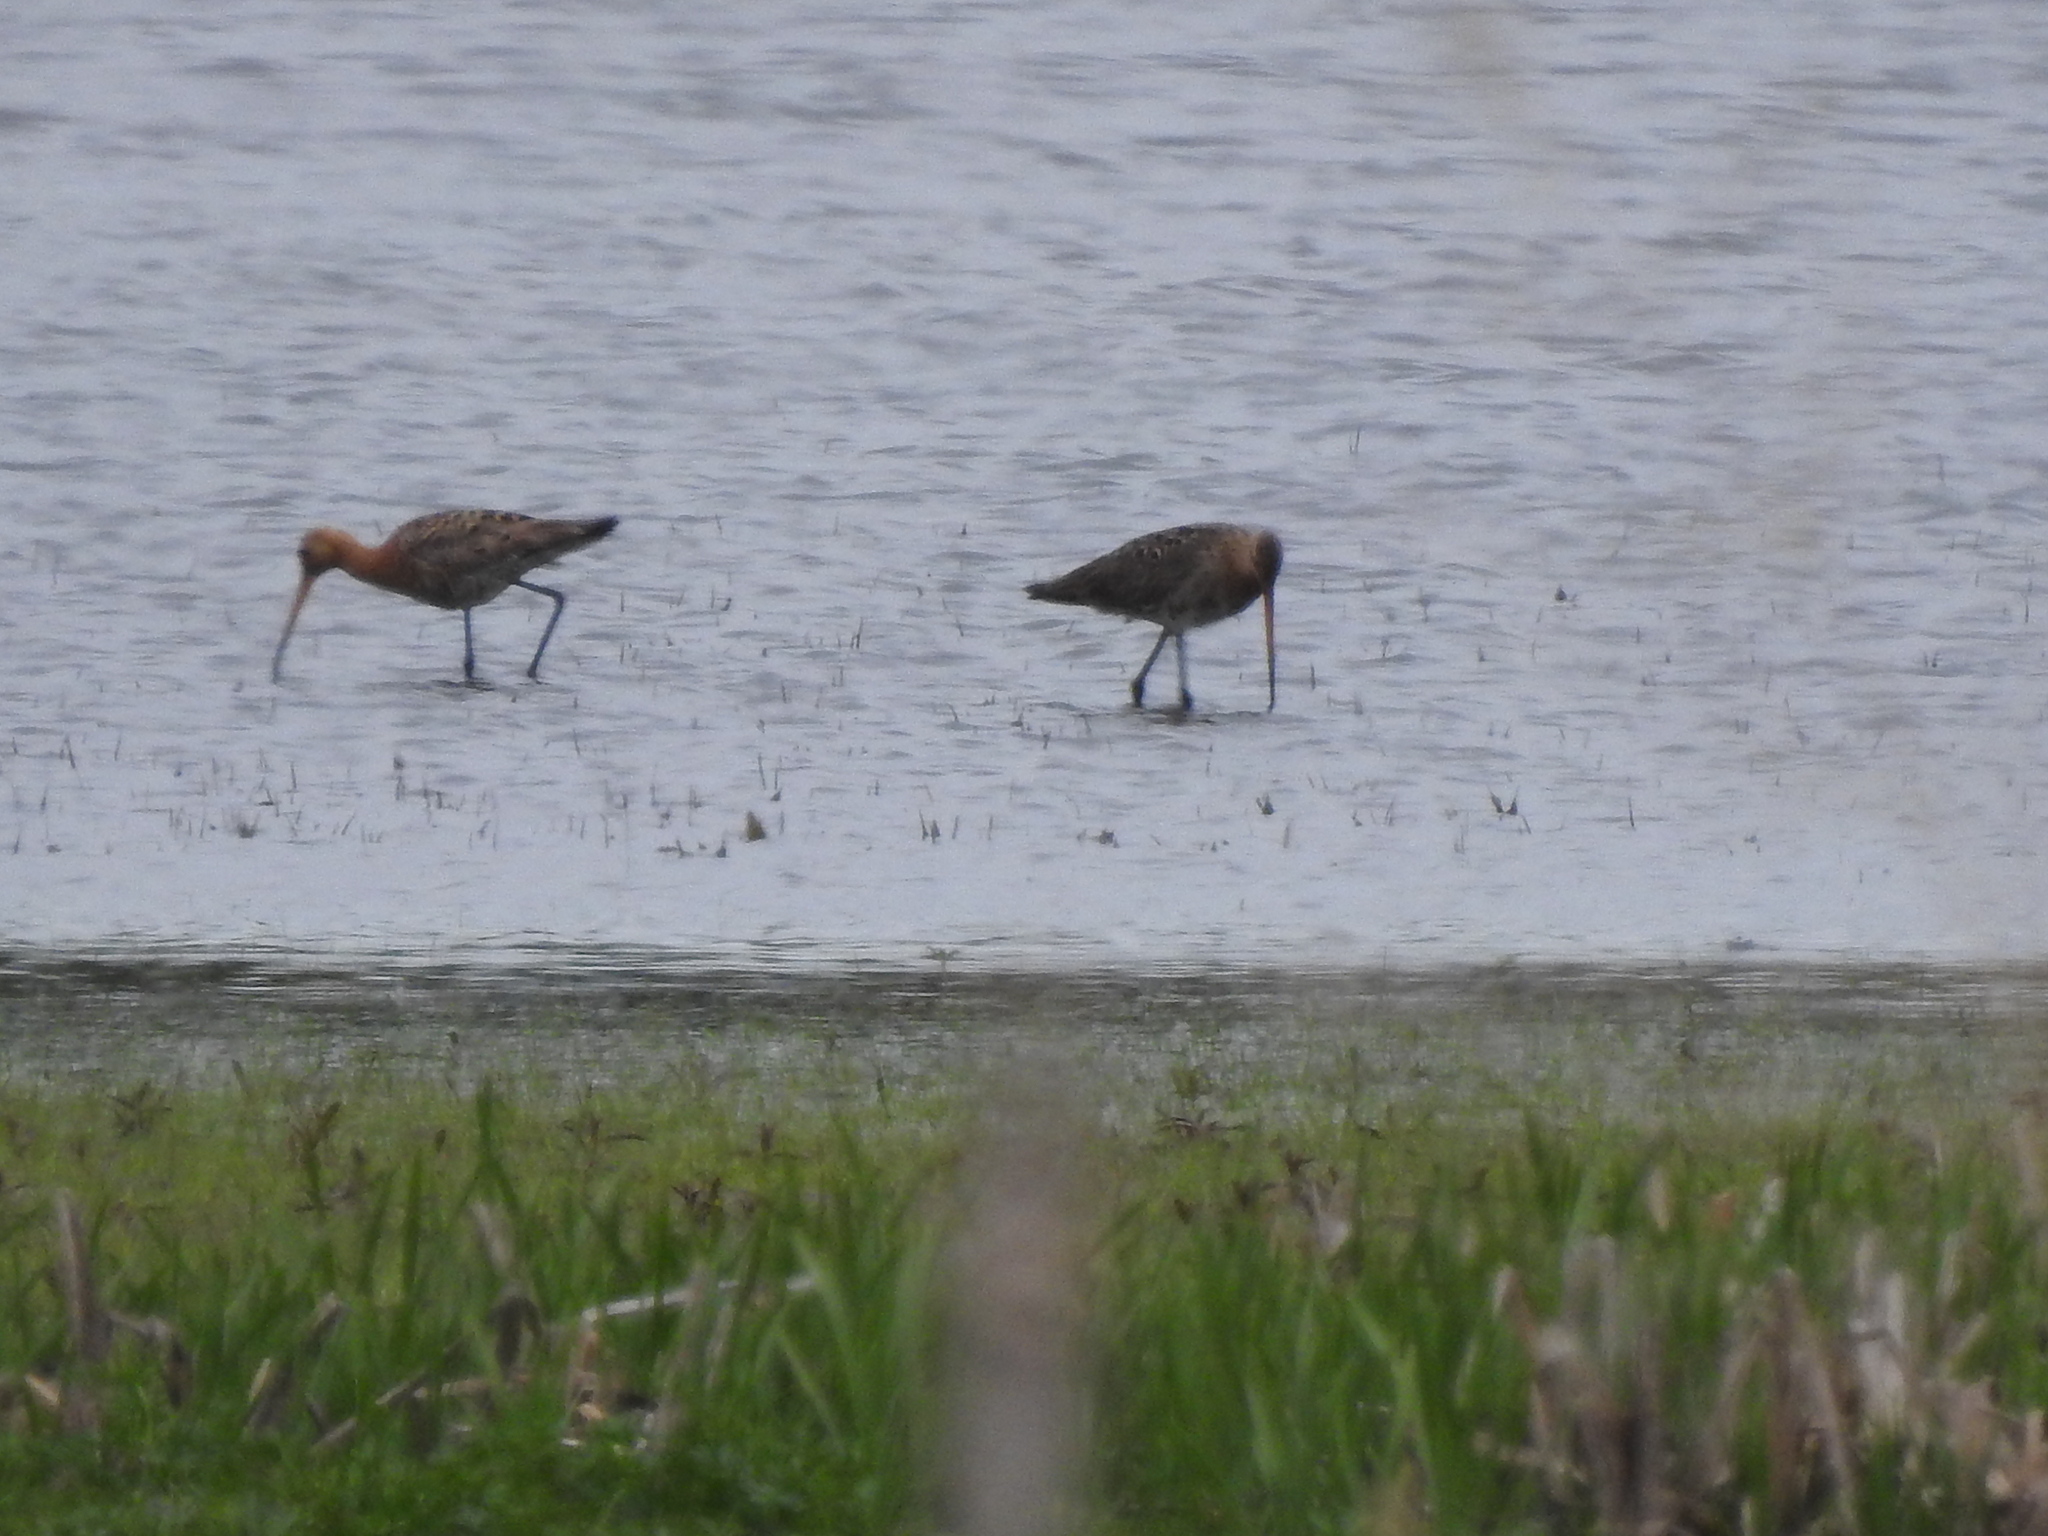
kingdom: Animalia
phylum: Chordata
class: Aves
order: Charadriiformes
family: Scolopacidae
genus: Limosa
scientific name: Limosa limosa
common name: Black-tailed godwit
